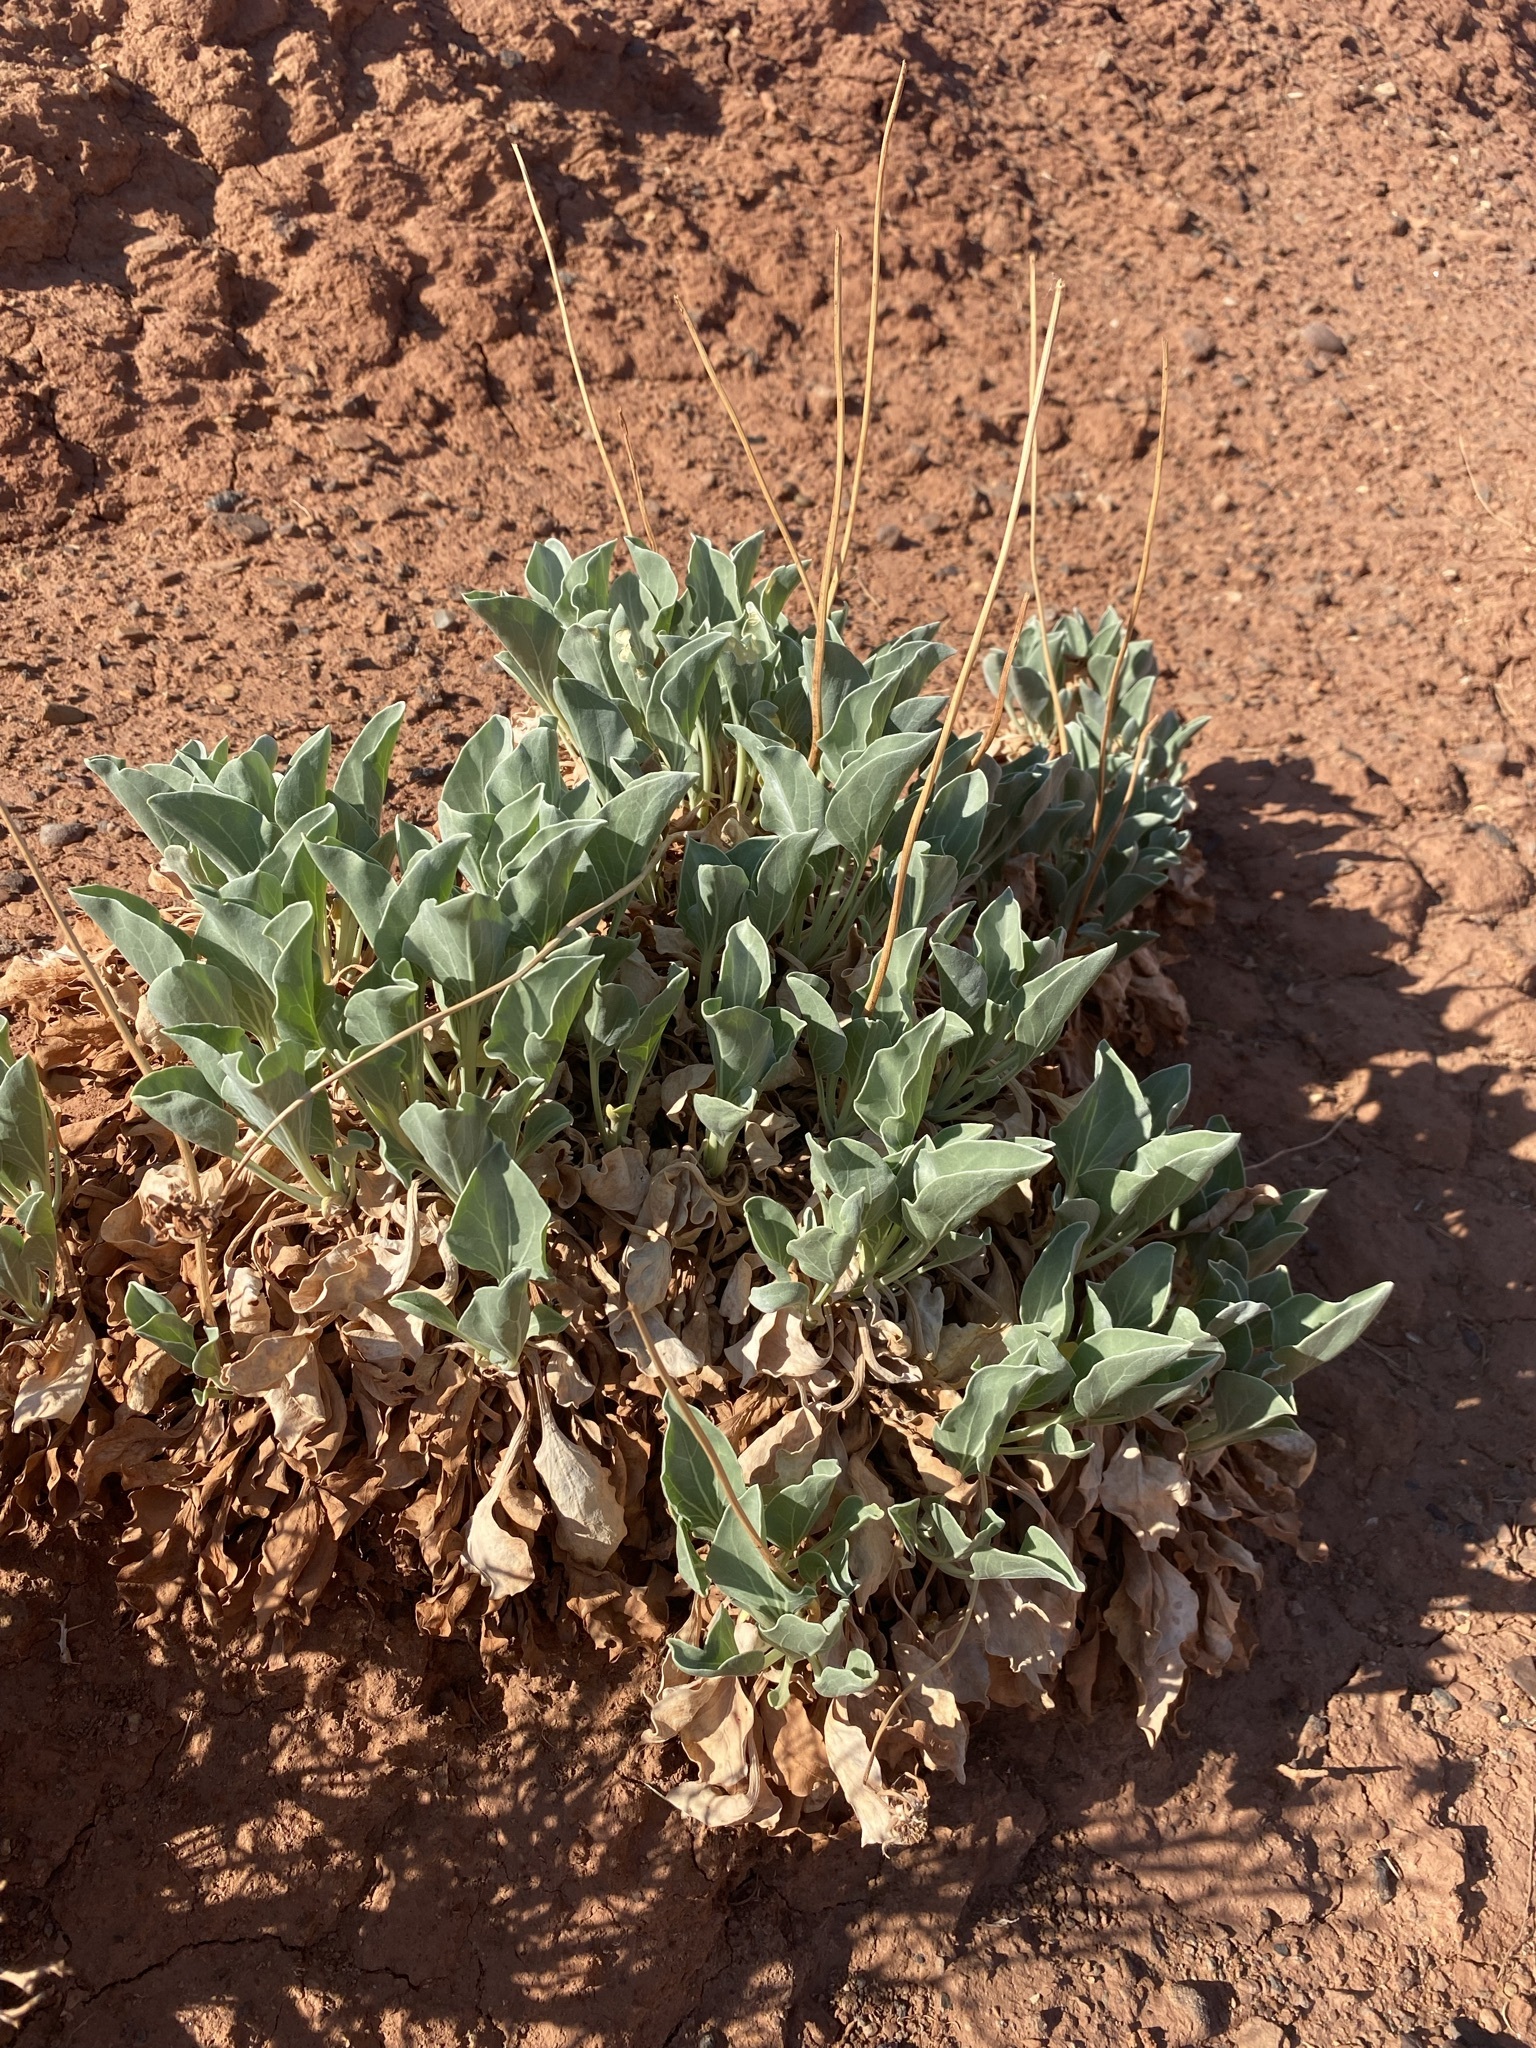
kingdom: Plantae
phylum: Tracheophyta
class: Magnoliopsida
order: Asterales
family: Asteraceae
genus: Enceliopsis
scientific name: Enceliopsis nudicaulis
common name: Naked-stem daisy
